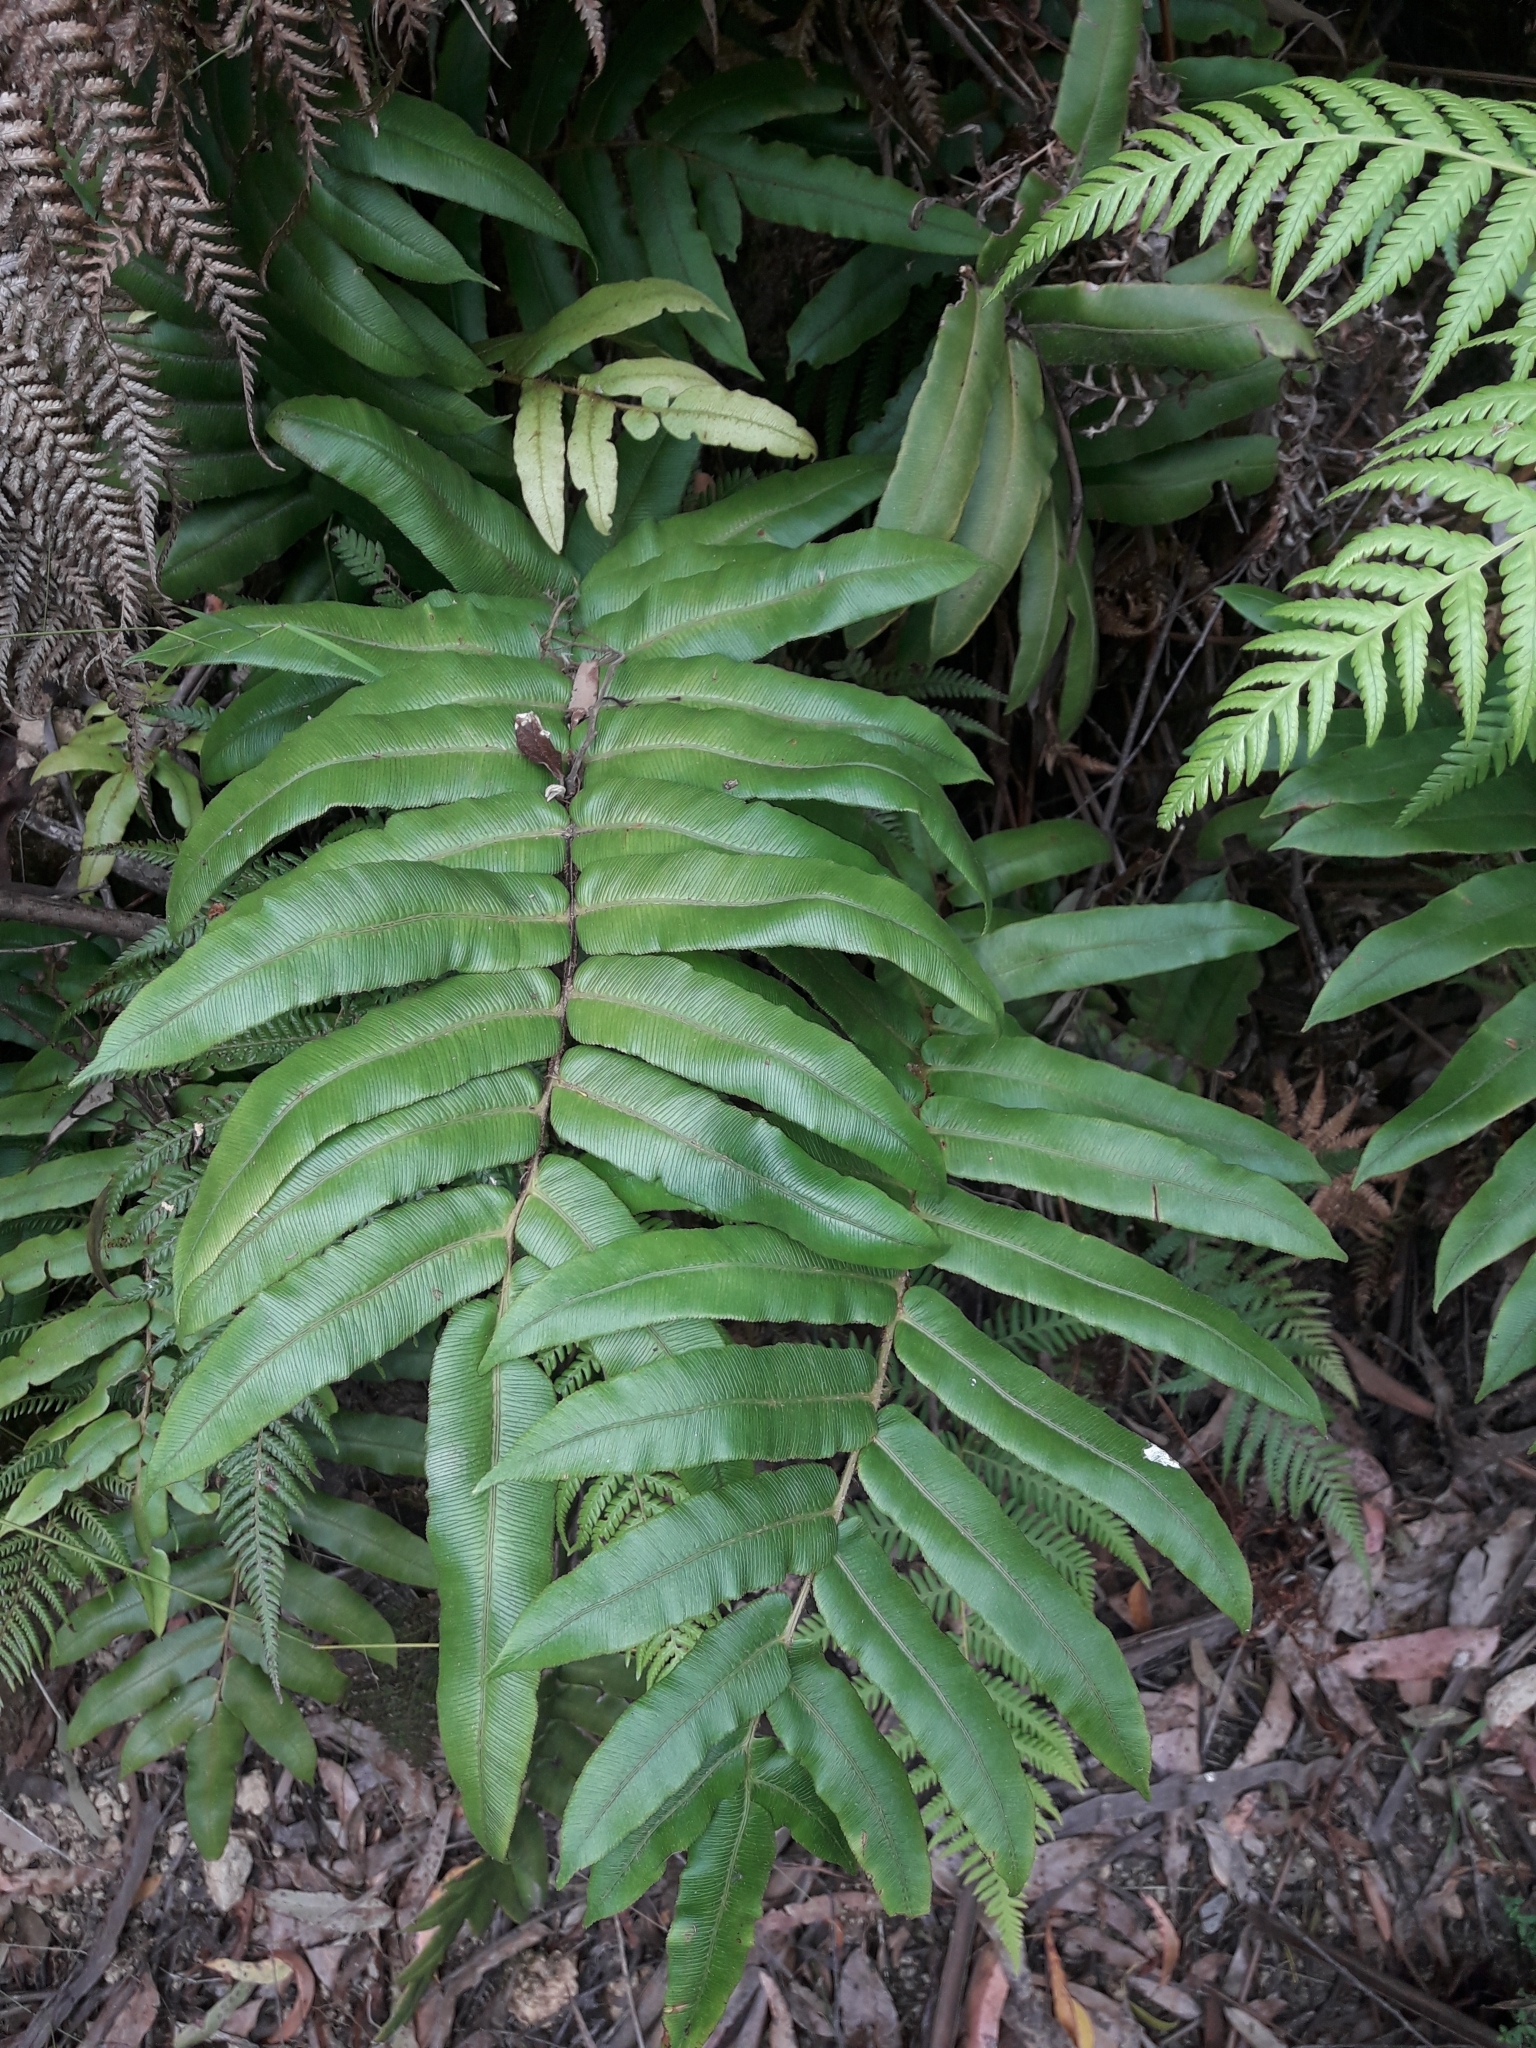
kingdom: Plantae
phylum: Tracheophyta
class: Polypodiopsida
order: Polypodiales
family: Blechnaceae
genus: Parablechnum
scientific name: Parablechnum wattsii
